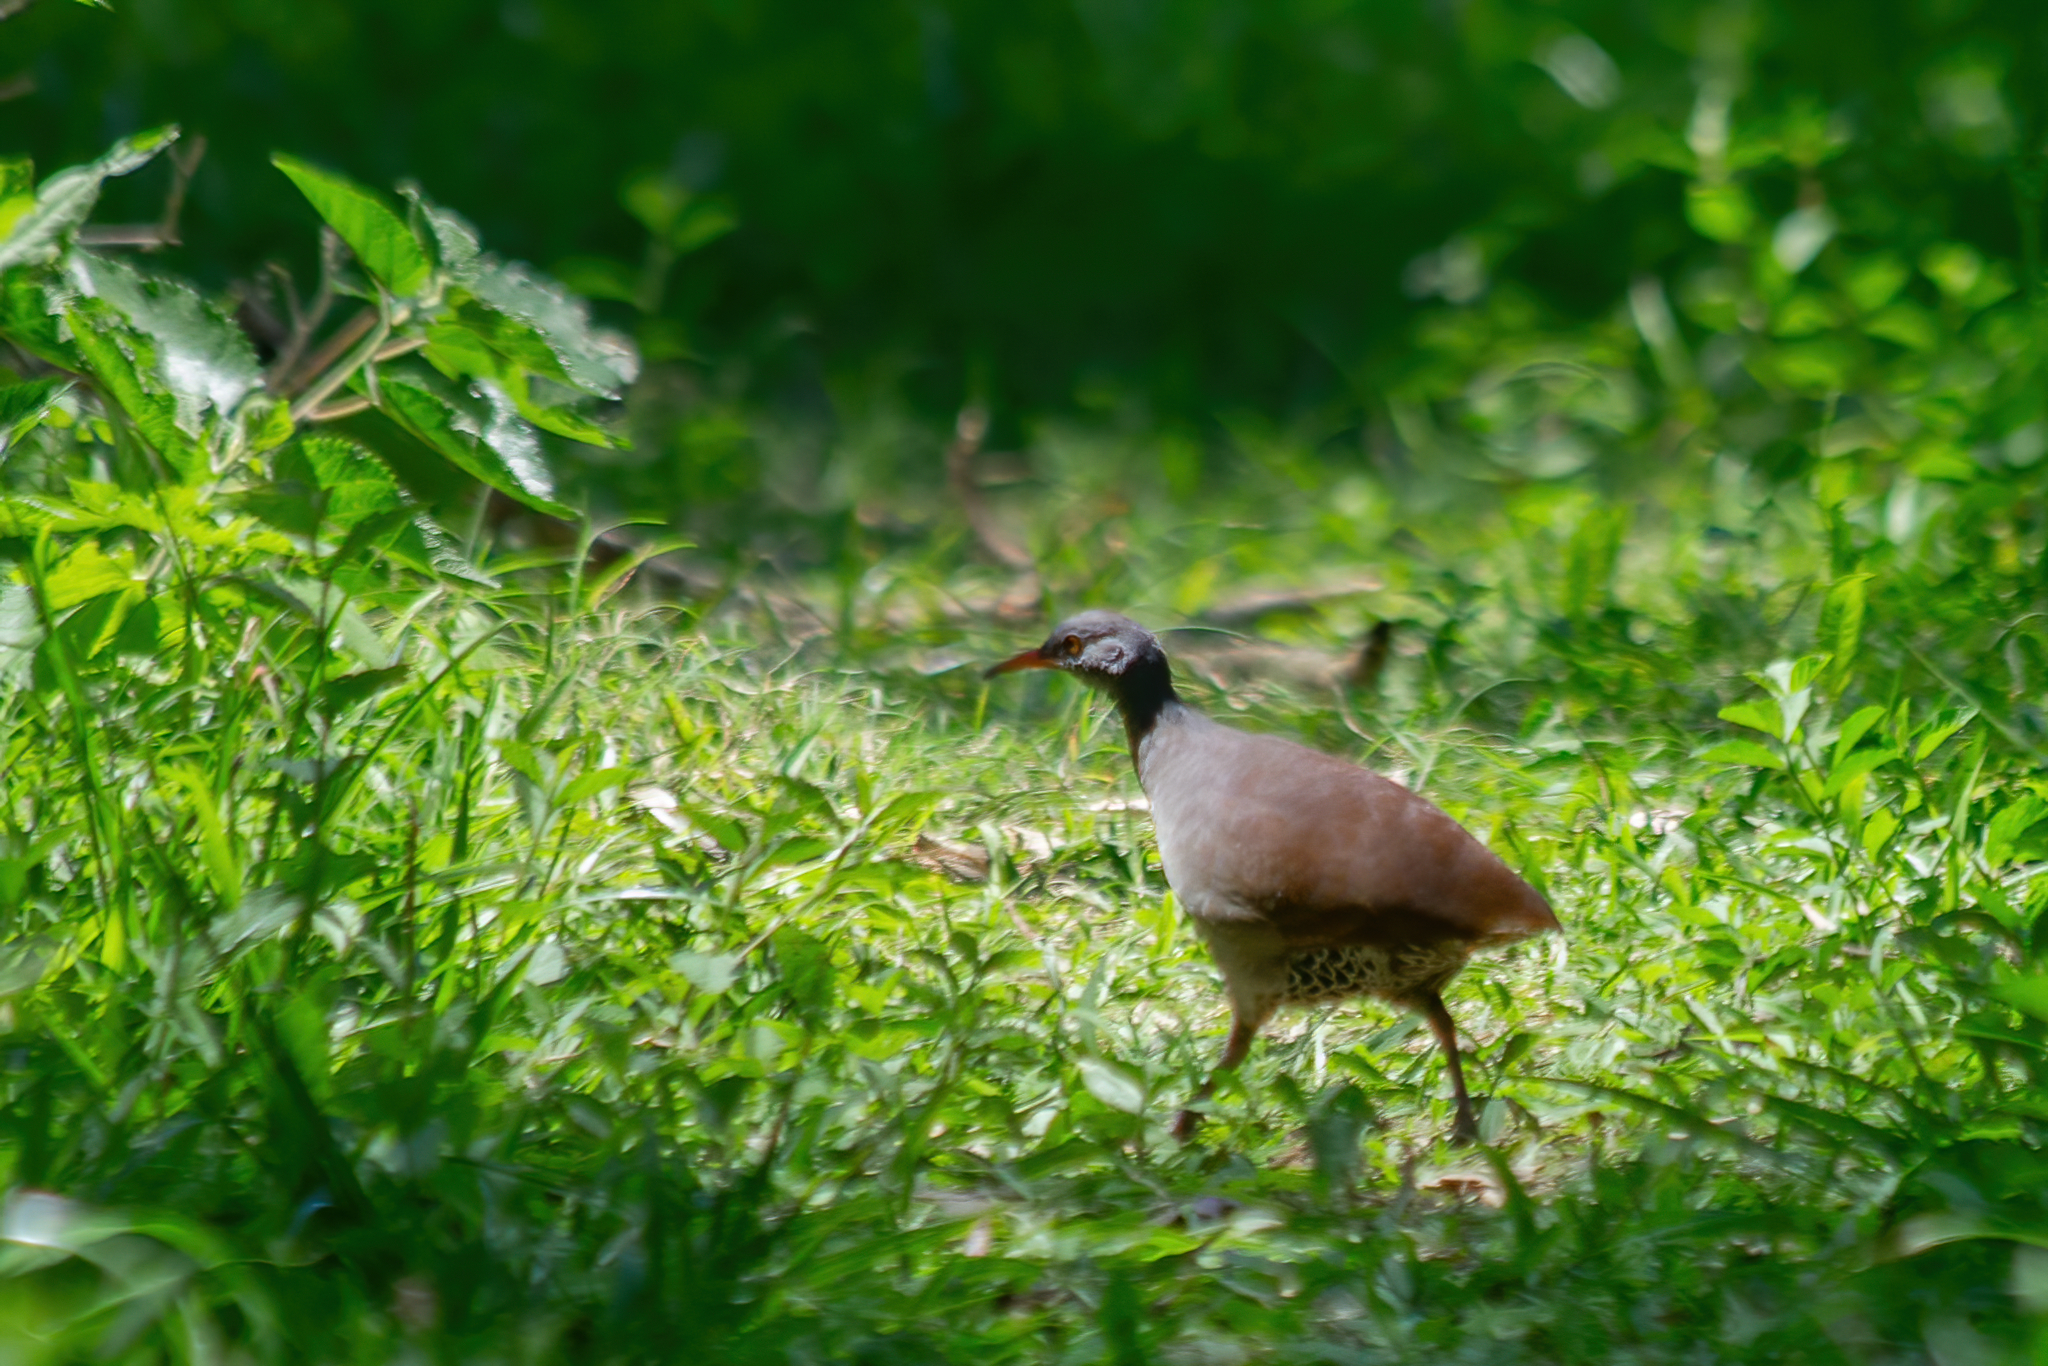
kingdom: Animalia
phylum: Chordata
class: Aves
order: Tinamiformes
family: Tinamidae
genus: Crypturellus
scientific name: Crypturellus tataupa
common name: Tataupa tinamou
